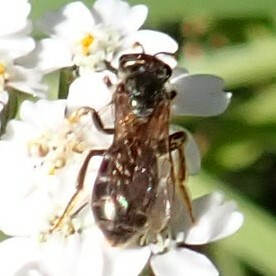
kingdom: Animalia
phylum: Arthropoda
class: Insecta
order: Hymenoptera
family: Halictidae
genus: Halictus
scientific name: Halictus confusus
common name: Southern bronze furrow bee
